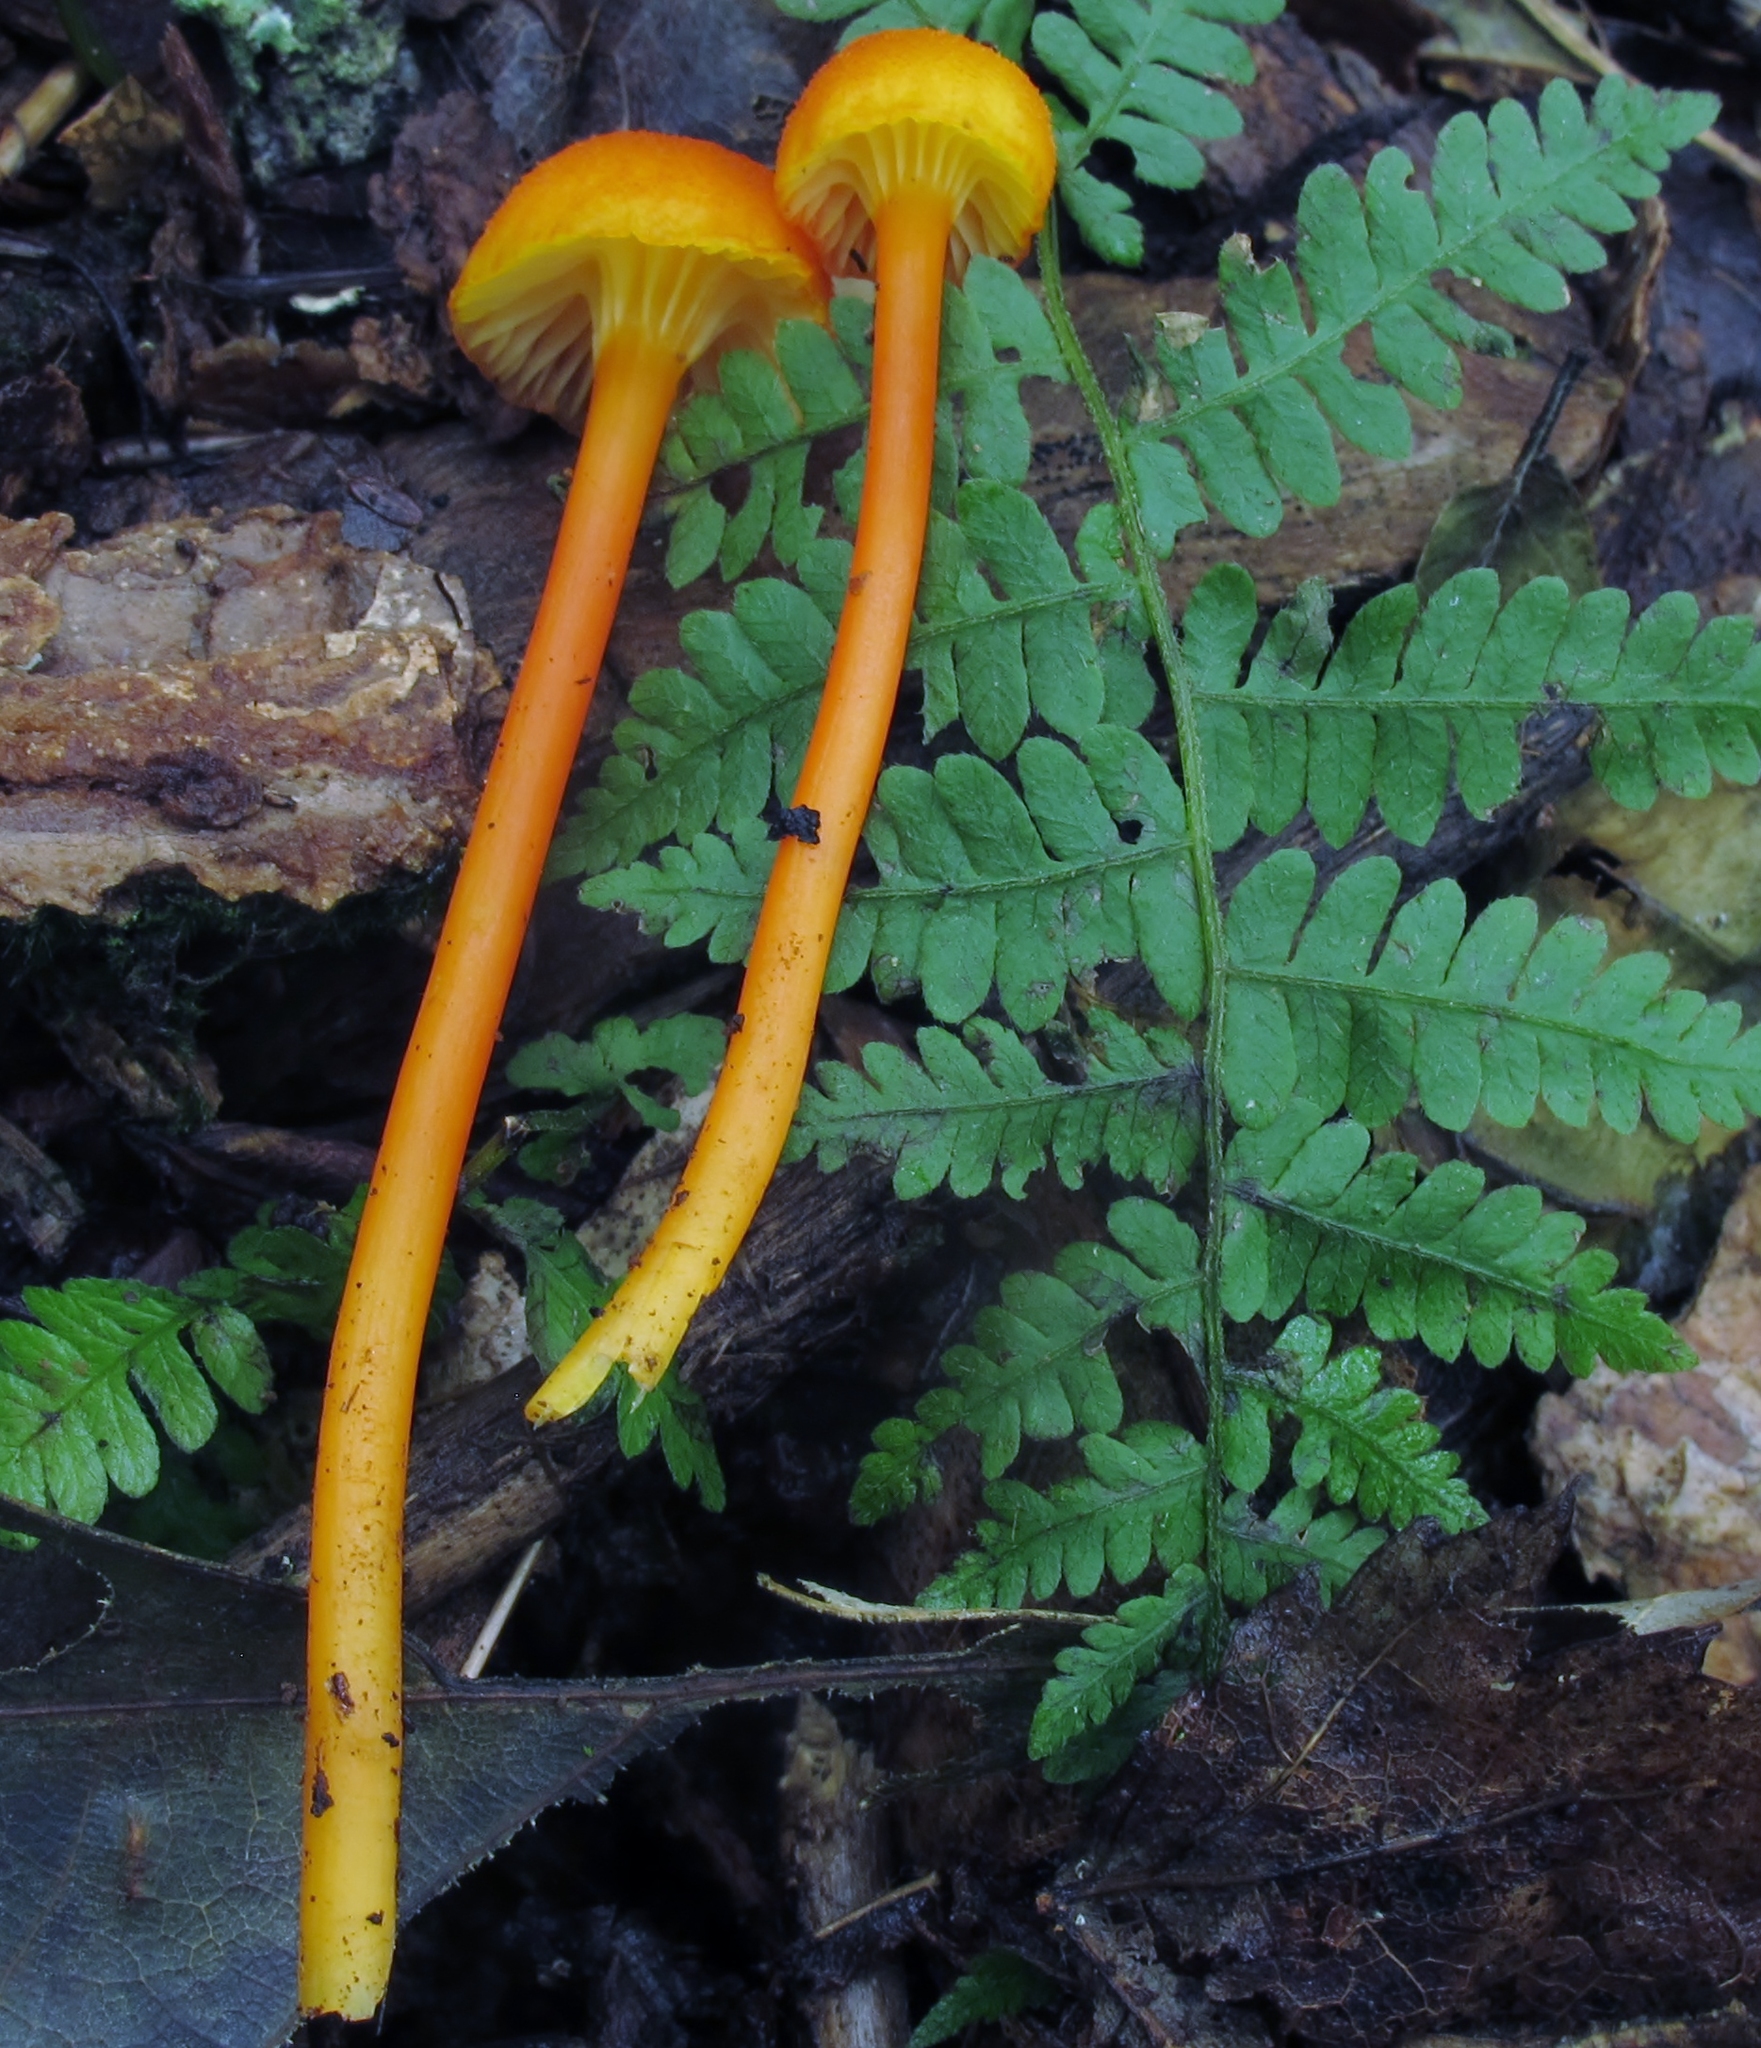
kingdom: Fungi
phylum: Basidiomycota
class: Agaricomycetes
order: Agaricales
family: Hygrophoraceae
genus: Hygrocybe
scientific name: Hygrocybe cantharellus
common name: Goblet waxcap
